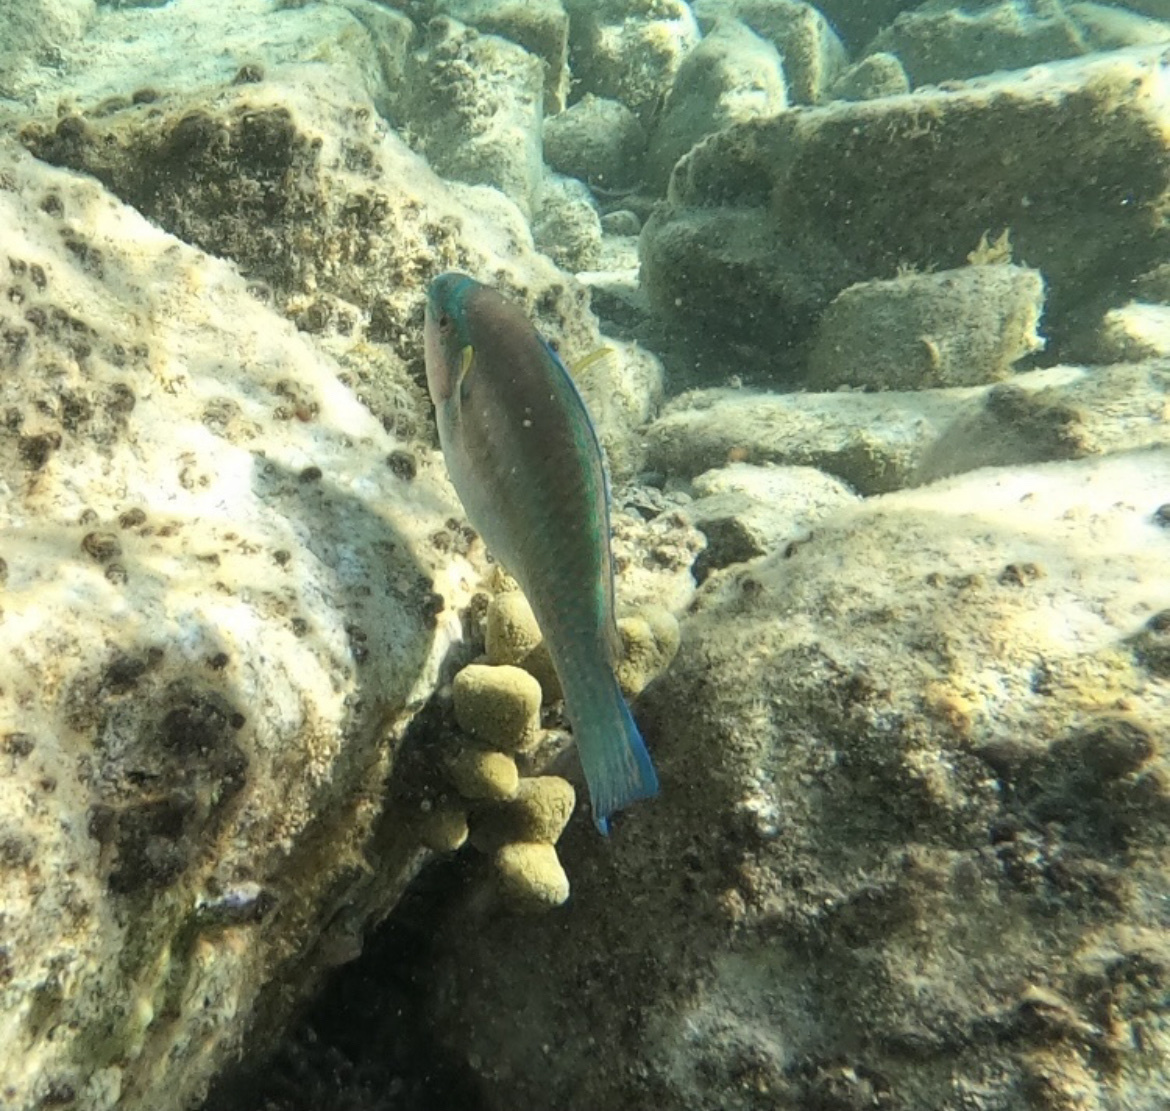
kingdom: Animalia
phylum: Chordata
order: Perciformes
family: Scaridae
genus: Scarus
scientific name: Scarus iseri
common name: Striped parrotfish
